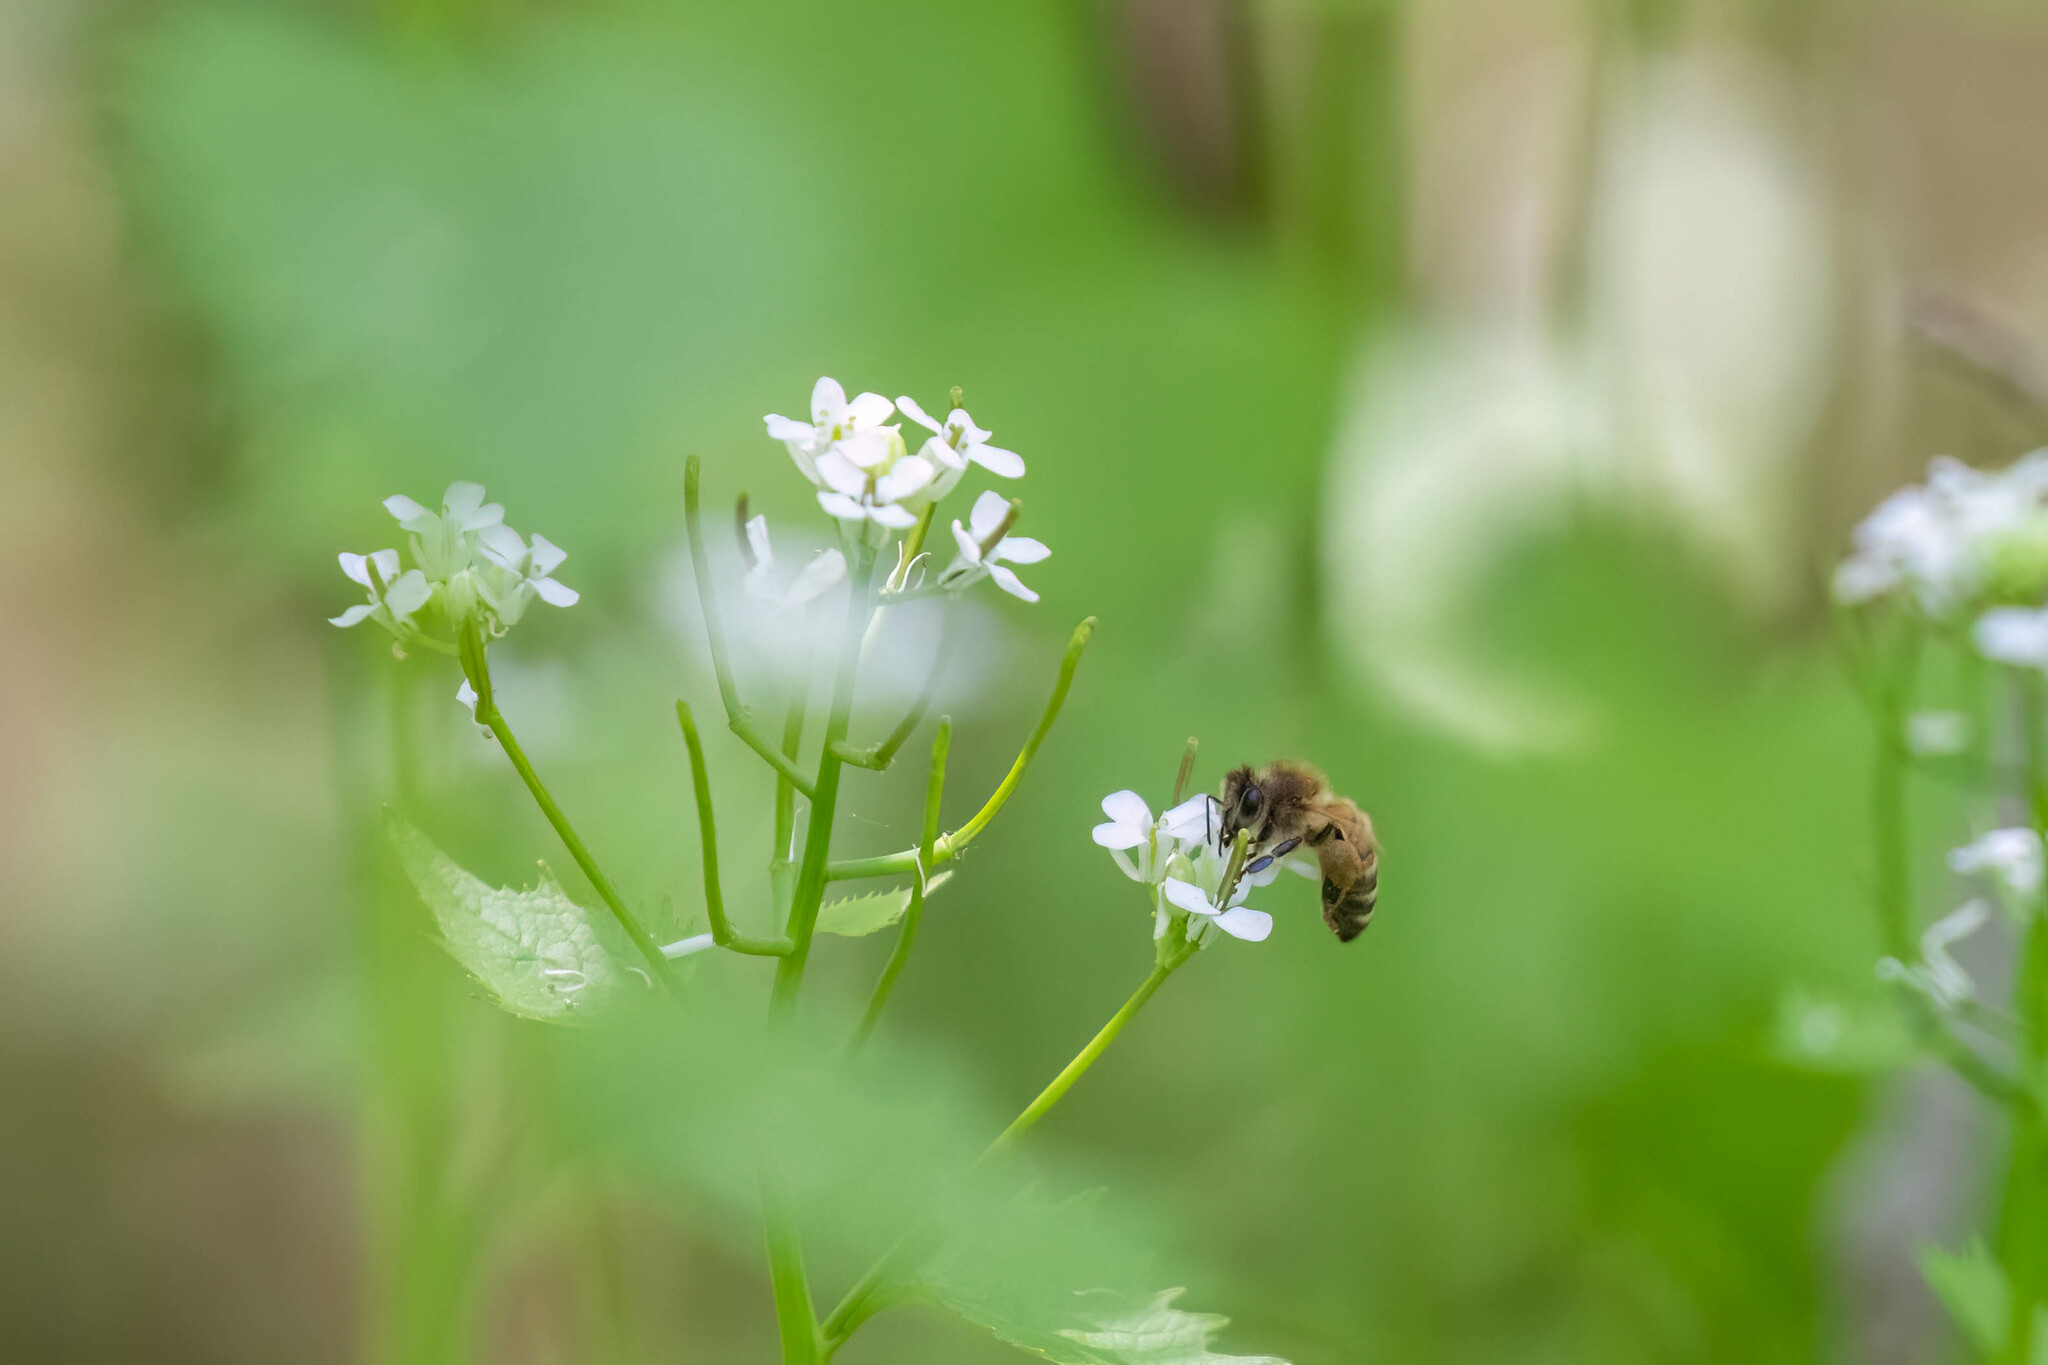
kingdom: Animalia
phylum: Arthropoda
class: Insecta
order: Hymenoptera
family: Apidae
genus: Apis
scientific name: Apis mellifera
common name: Honey bee
